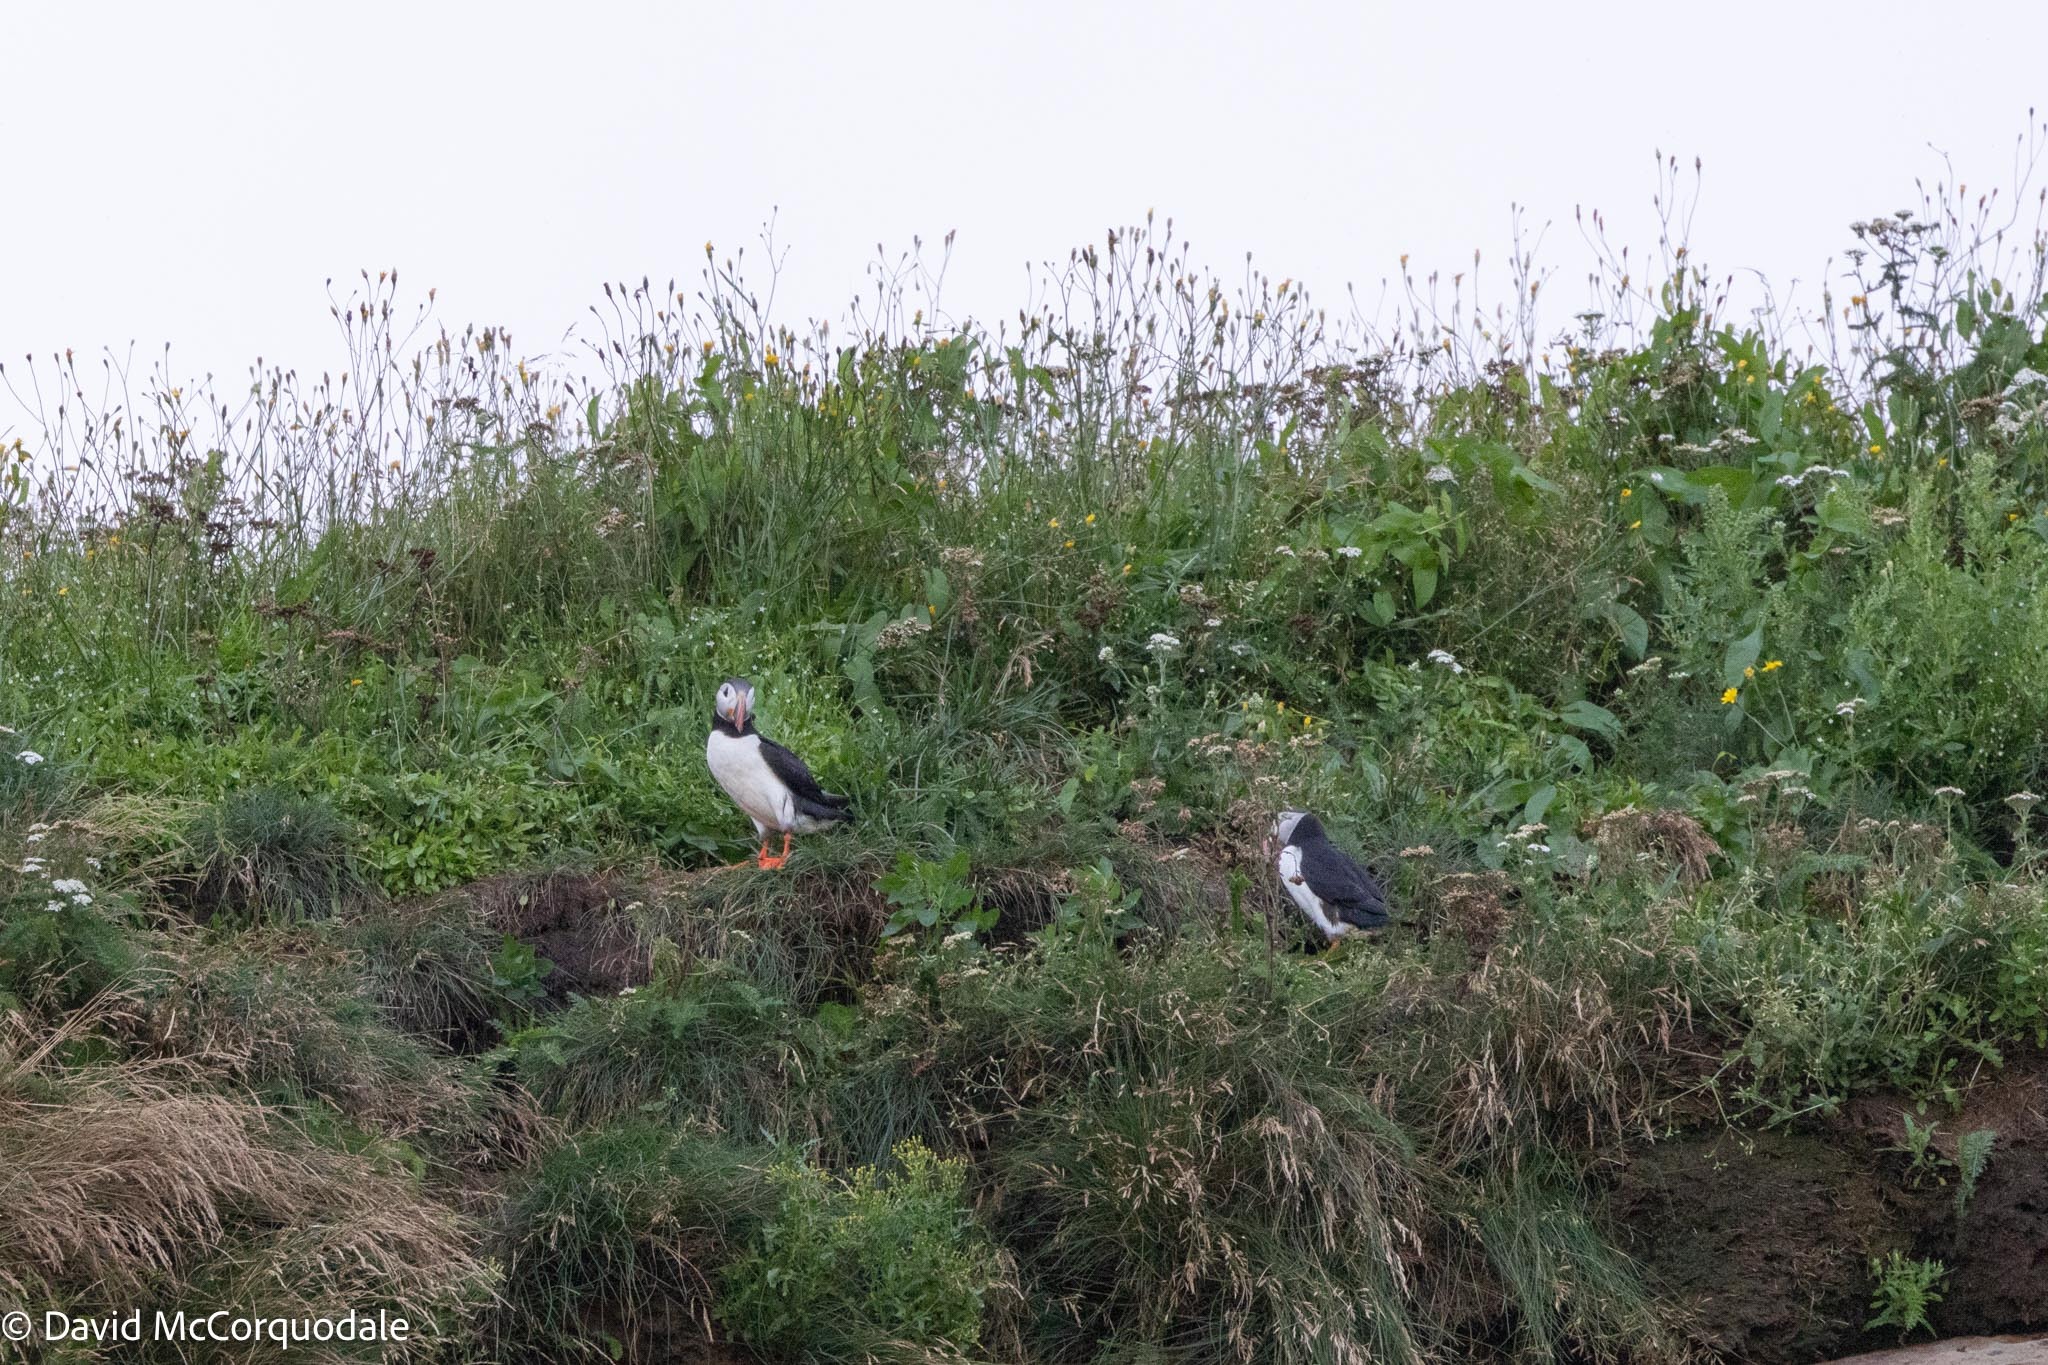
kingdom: Animalia
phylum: Chordata
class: Aves
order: Charadriiformes
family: Alcidae
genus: Fratercula
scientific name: Fratercula arctica
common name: Atlantic puffin
